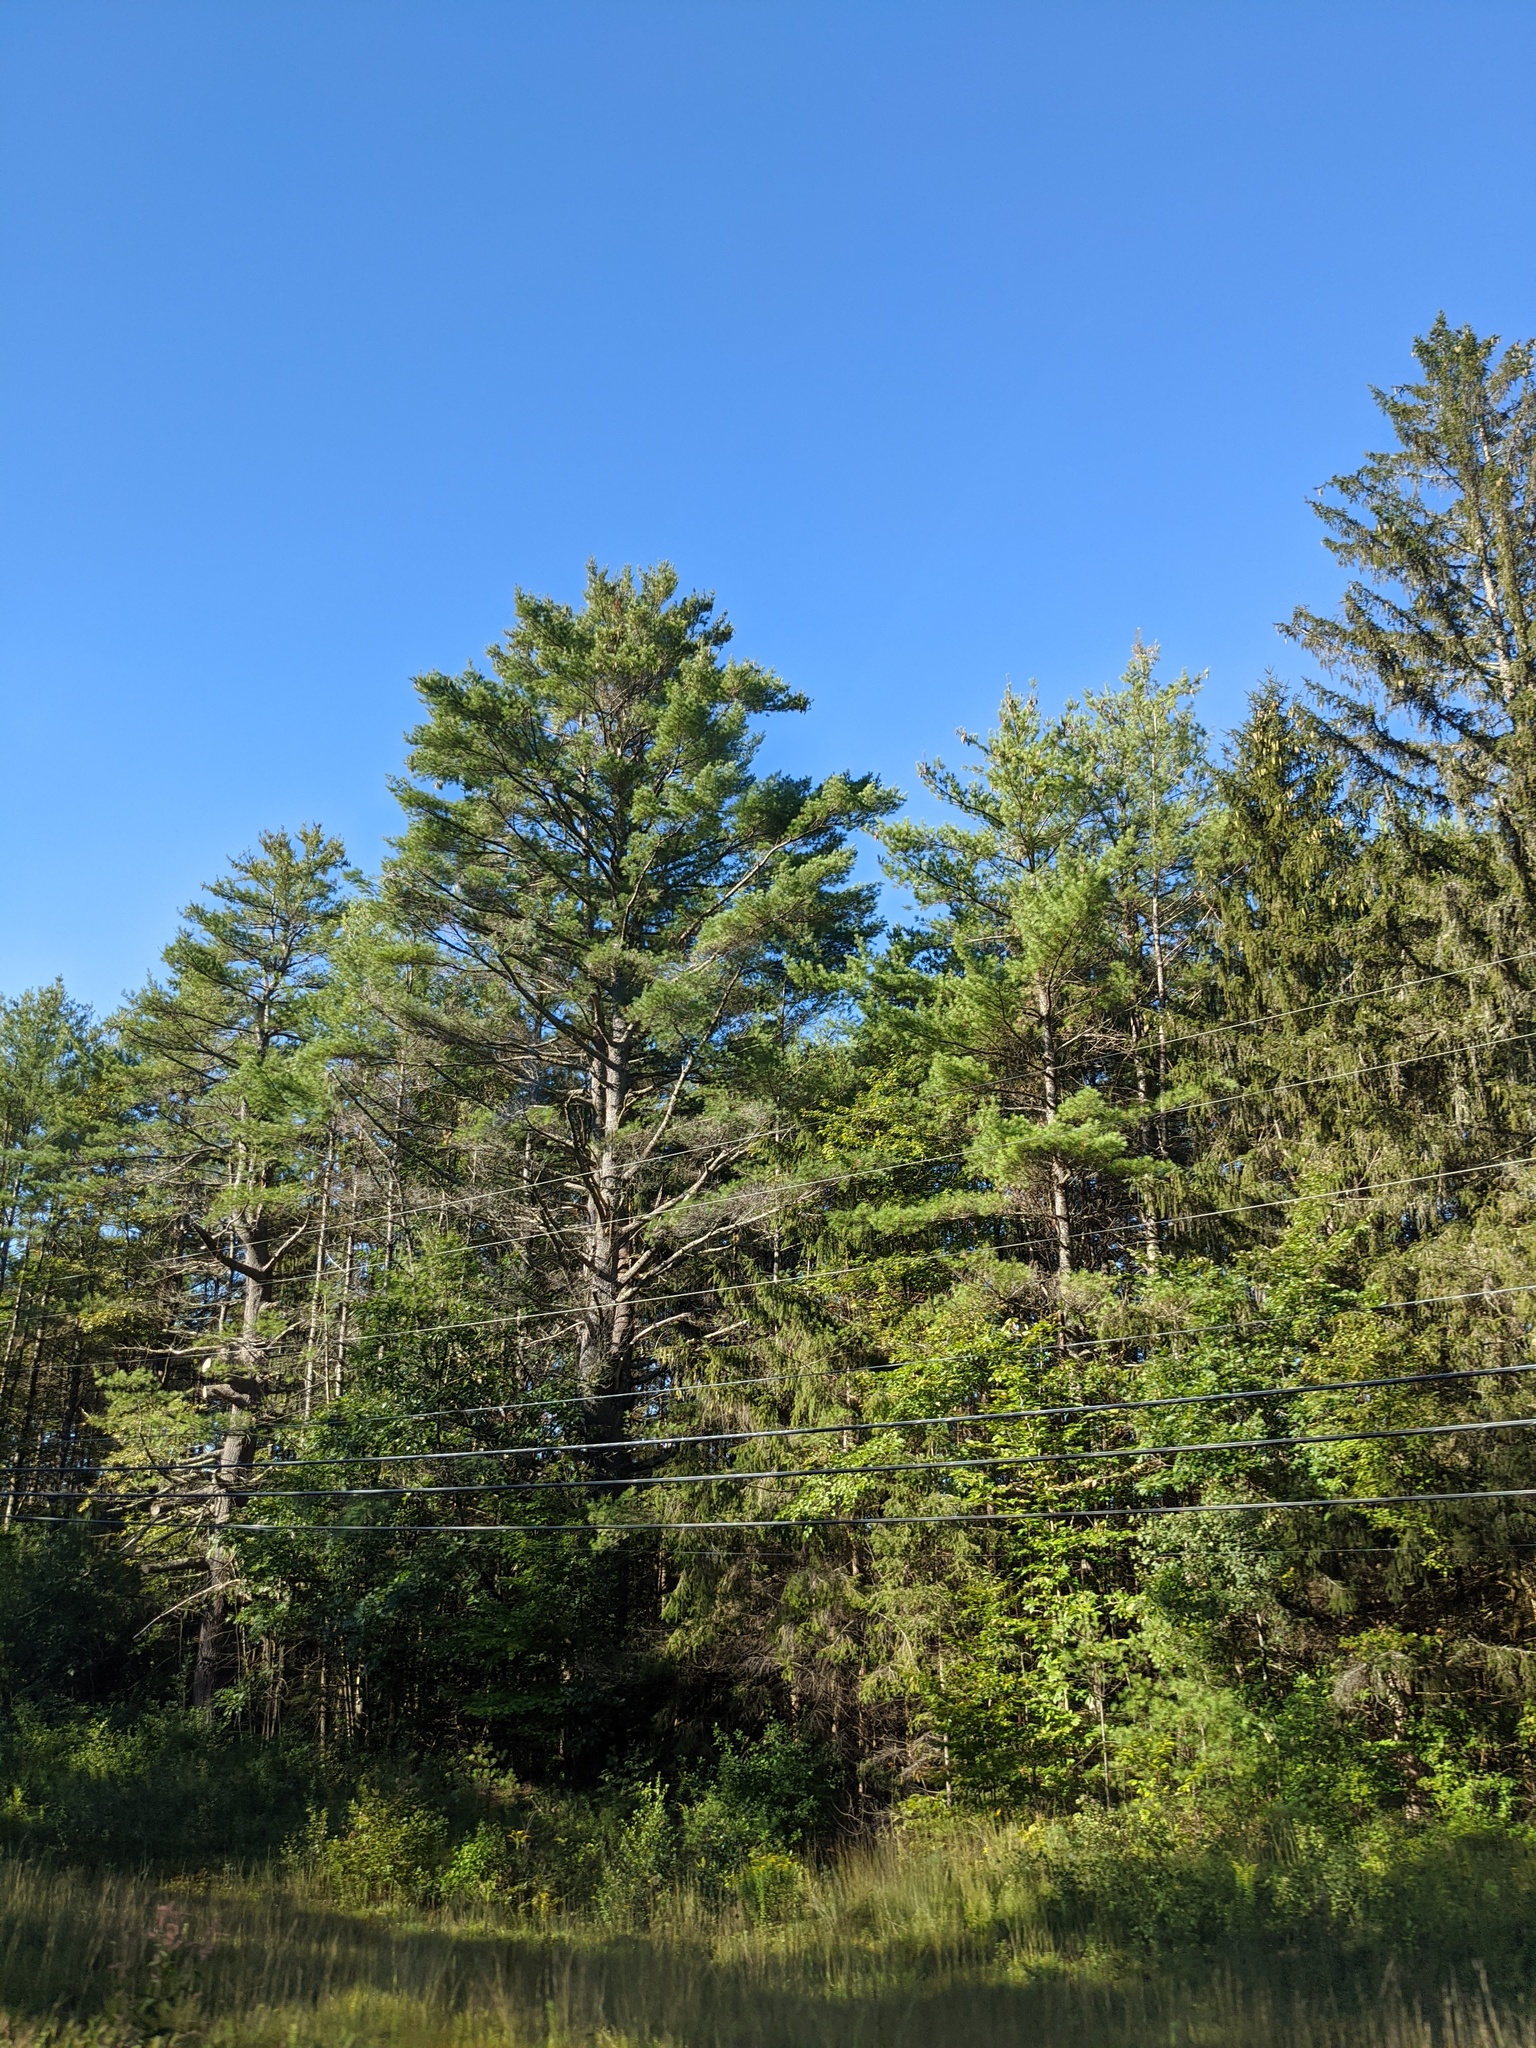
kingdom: Plantae
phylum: Tracheophyta
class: Pinopsida
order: Pinales
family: Pinaceae
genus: Pinus
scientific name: Pinus strobus
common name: Weymouth pine
